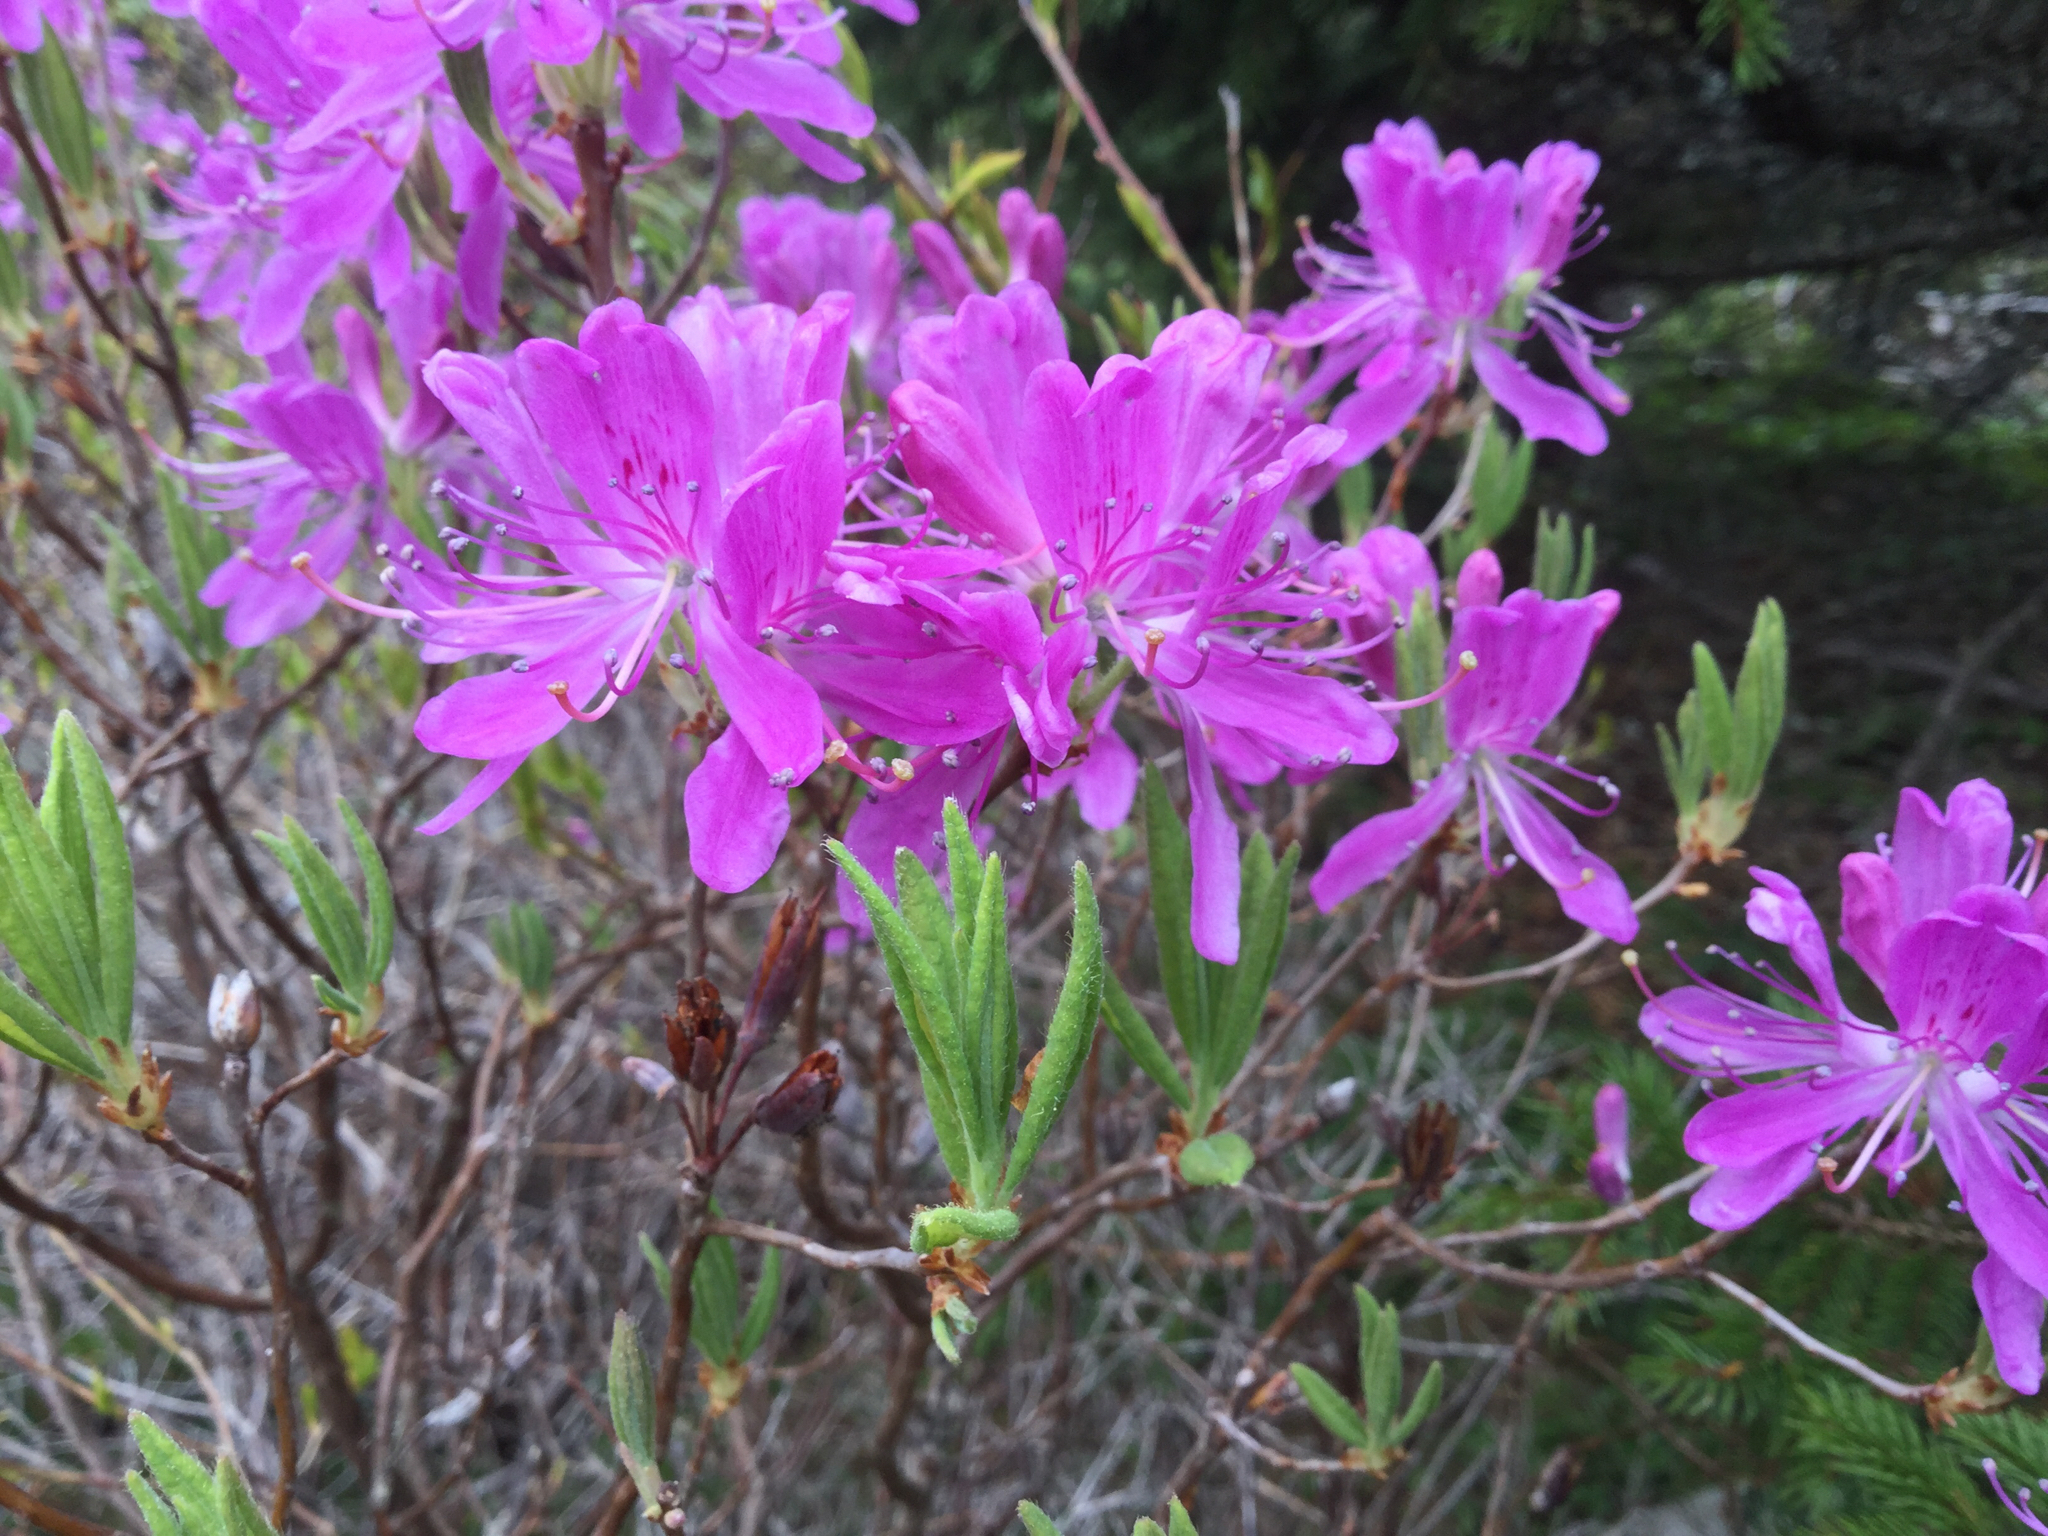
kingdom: Plantae
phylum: Tracheophyta
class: Magnoliopsida
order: Ericales
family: Ericaceae
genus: Rhododendron
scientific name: Rhododendron canadense
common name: Rhodora
